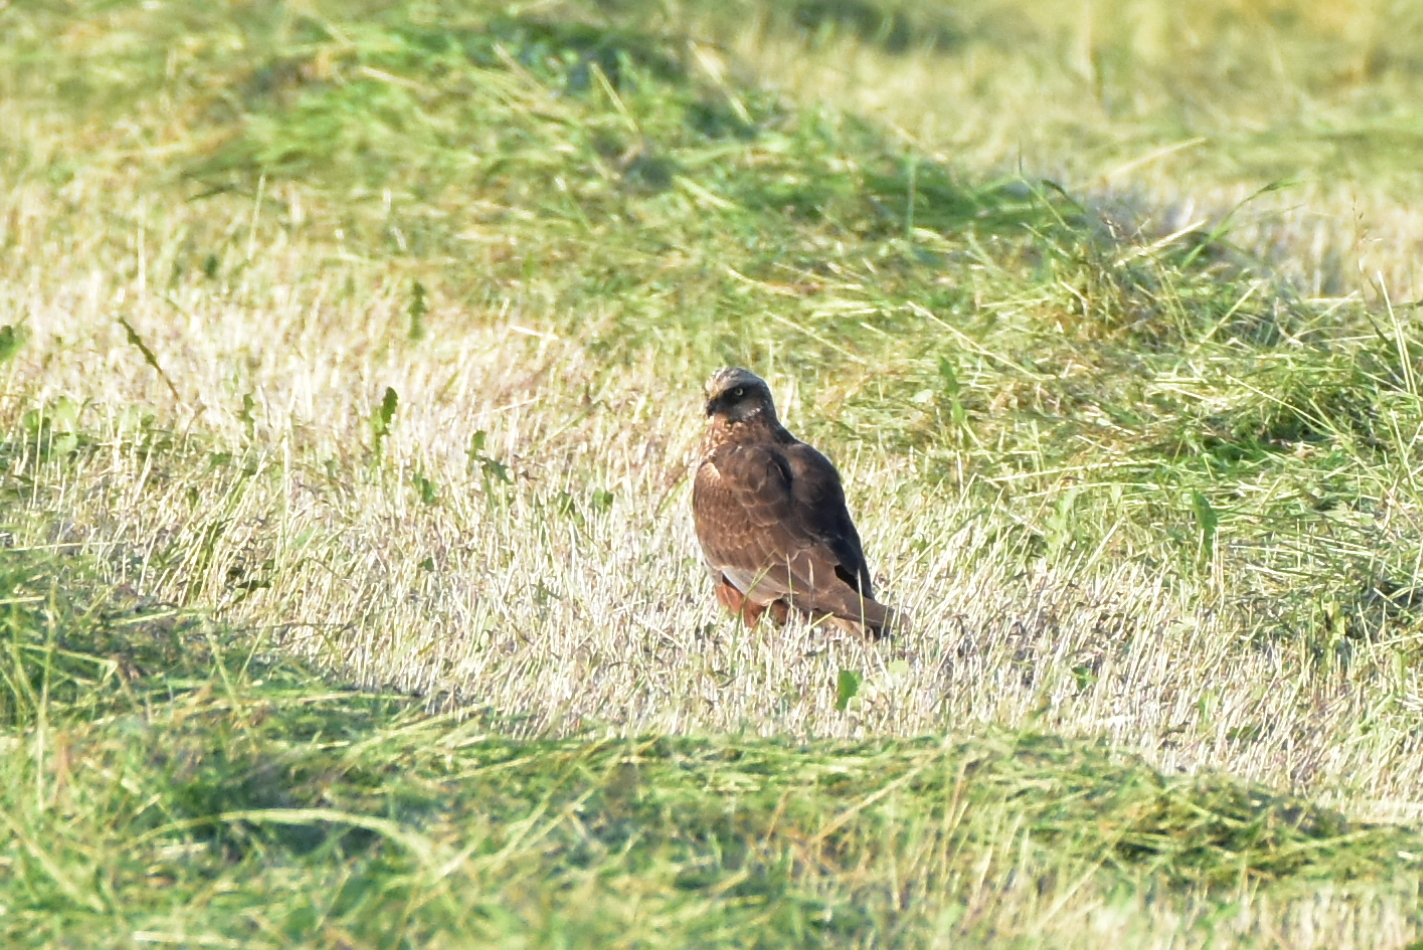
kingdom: Animalia
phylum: Chordata
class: Aves
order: Accipitriformes
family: Accipitridae
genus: Circus
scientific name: Circus aeruginosus
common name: Western marsh harrier
